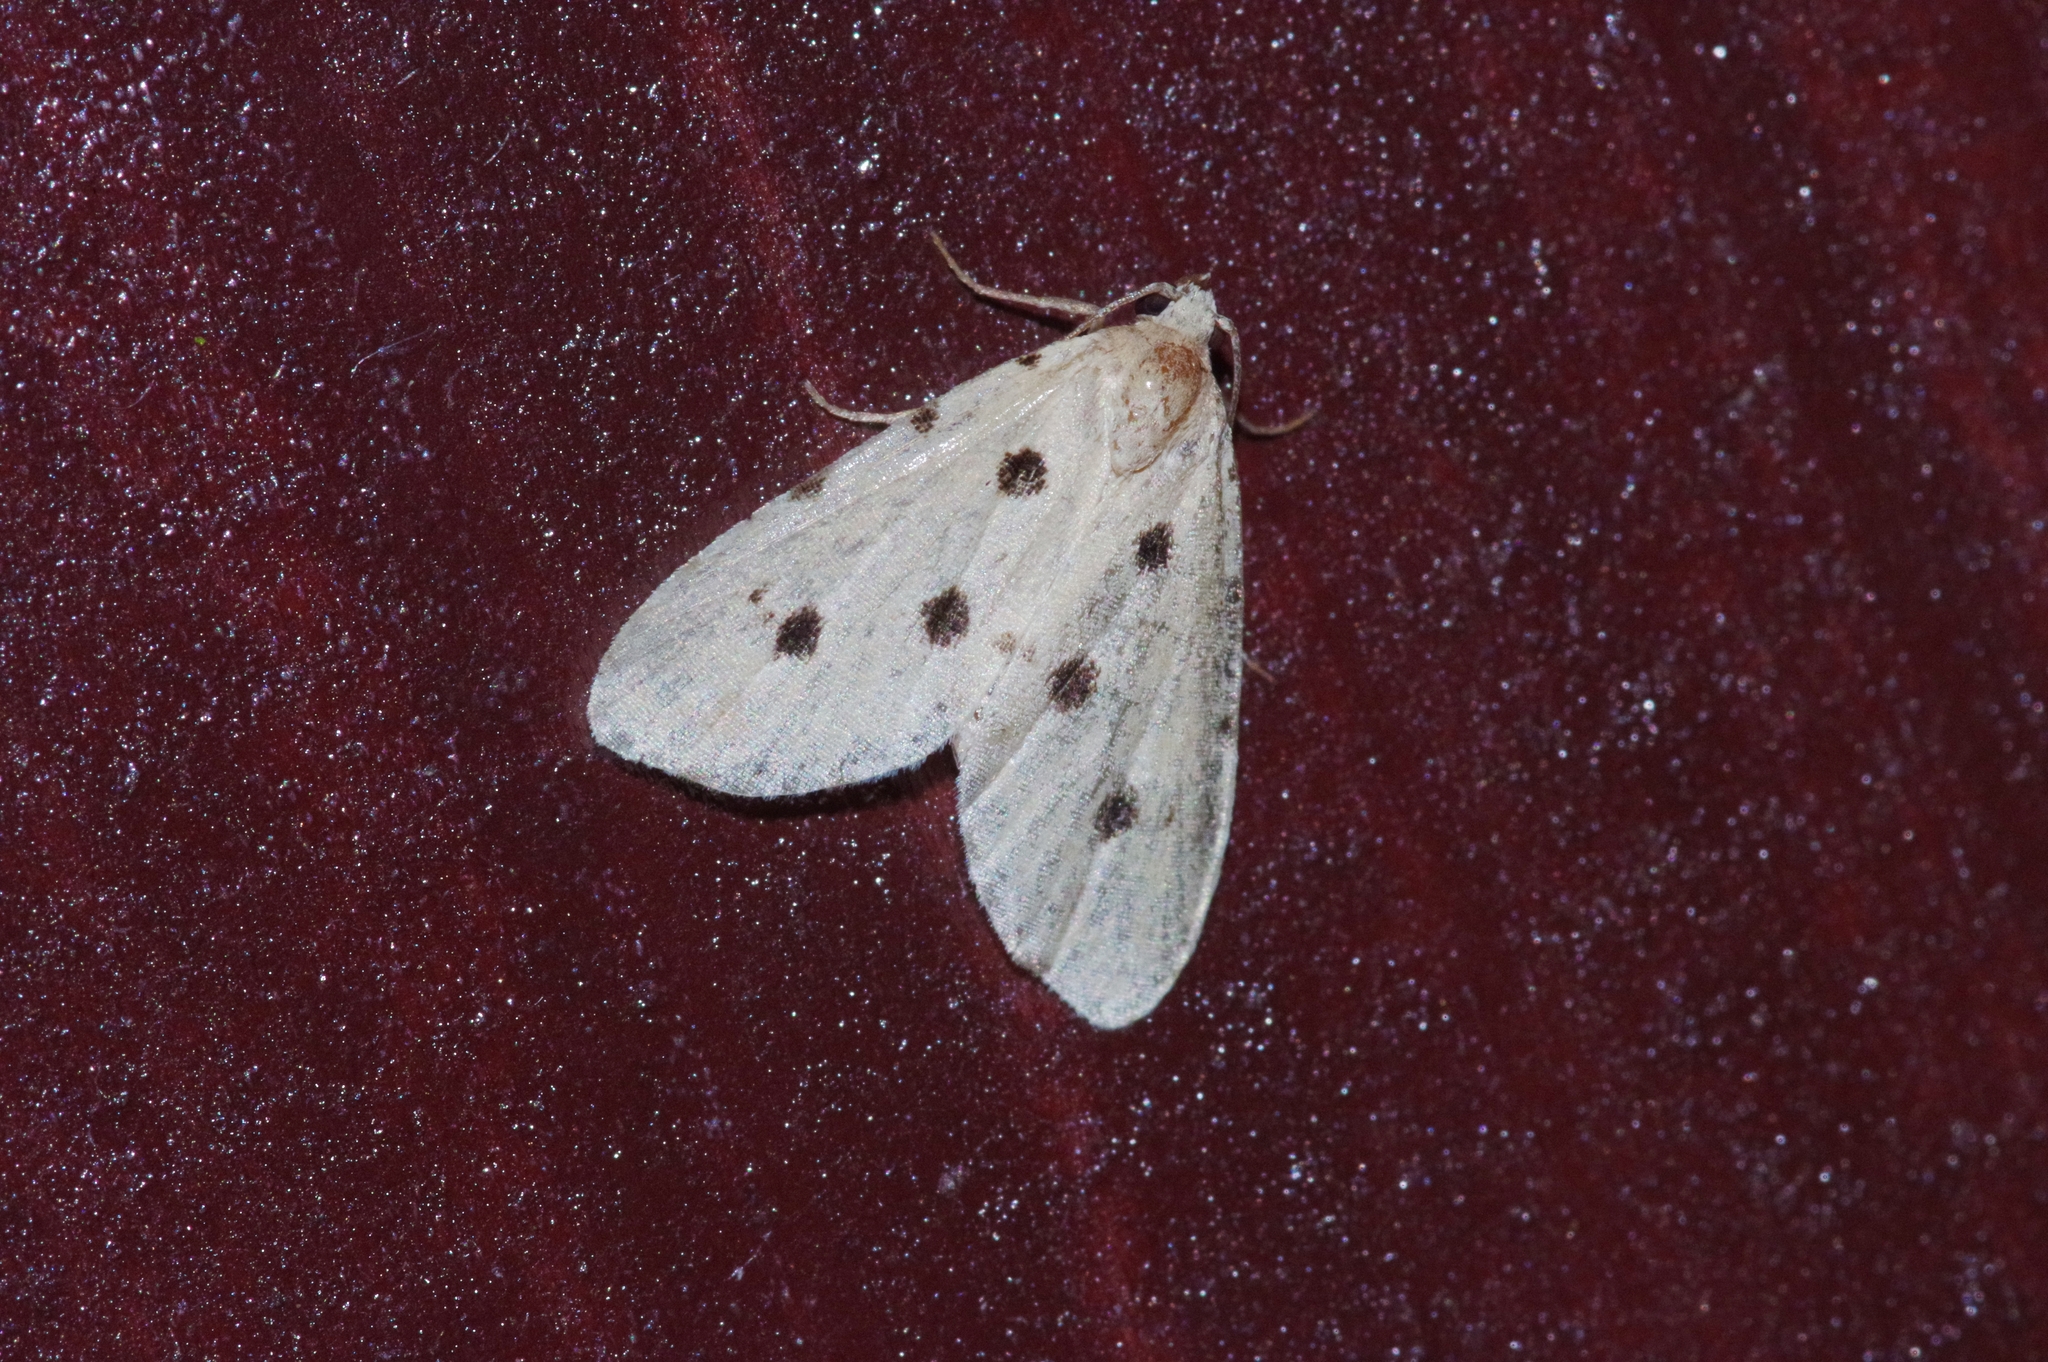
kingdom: Animalia
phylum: Arthropoda
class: Insecta
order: Lepidoptera
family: Noctuidae
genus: Metaemene
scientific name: Metaemene atrigutta
